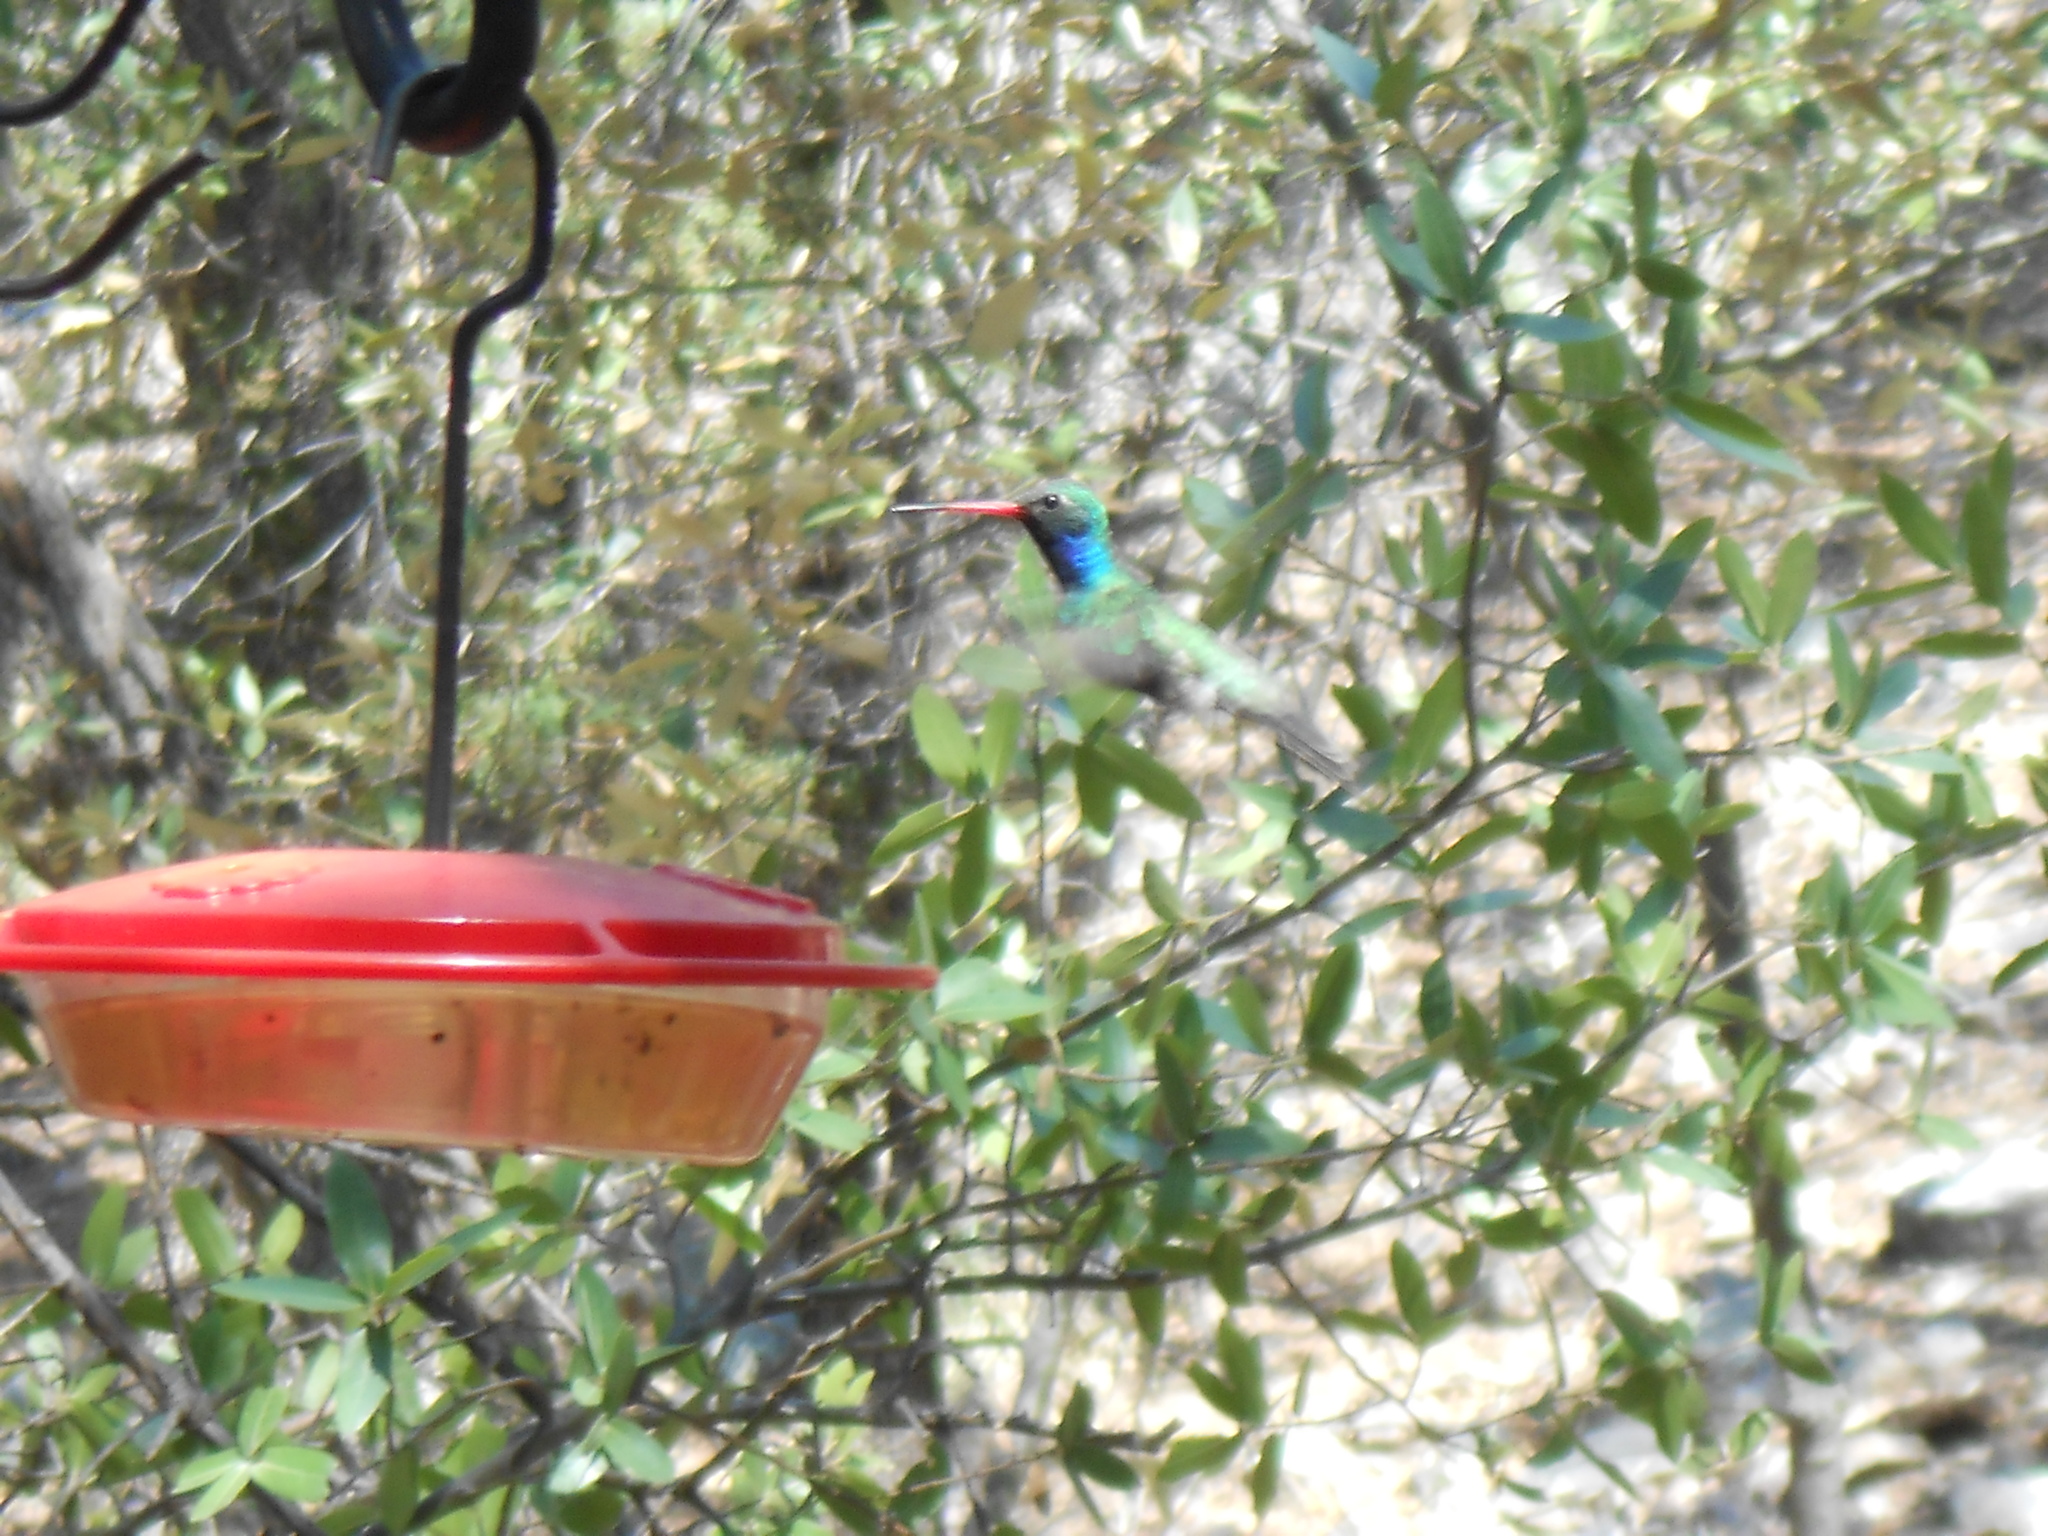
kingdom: Animalia
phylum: Chordata
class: Aves
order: Apodiformes
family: Trochilidae
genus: Cynanthus
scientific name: Cynanthus latirostris
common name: Broad-billed hummingbird
